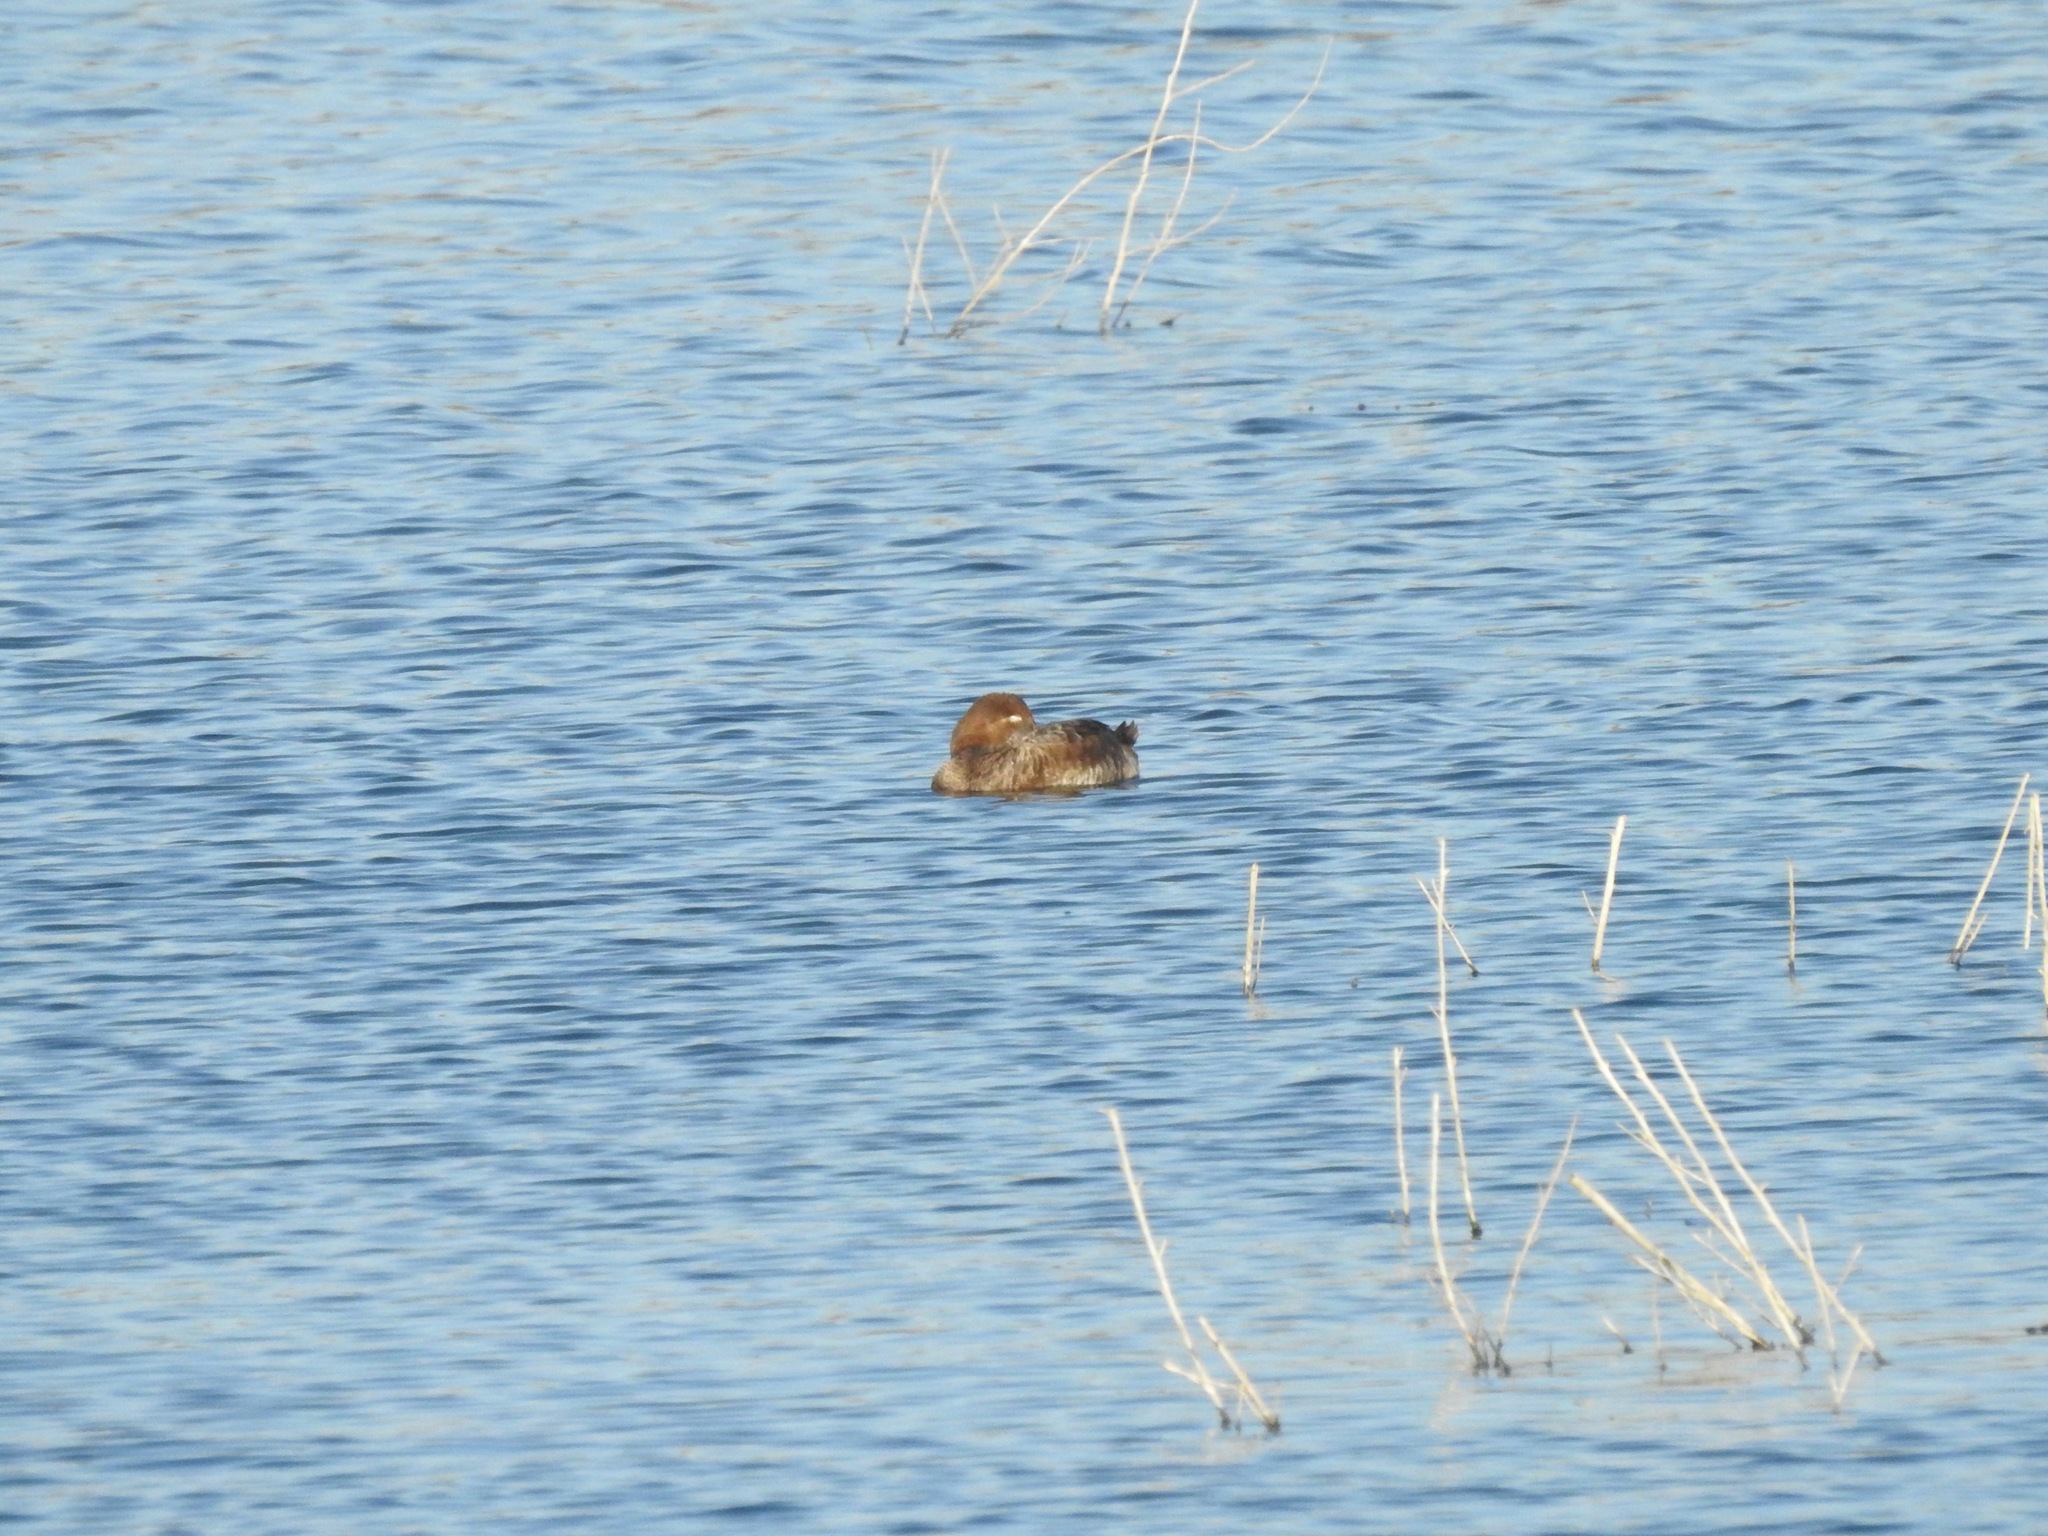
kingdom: Animalia
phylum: Chordata
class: Aves
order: Anseriformes
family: Anatidae
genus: Aythya
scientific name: Aythya americana
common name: Redhead
